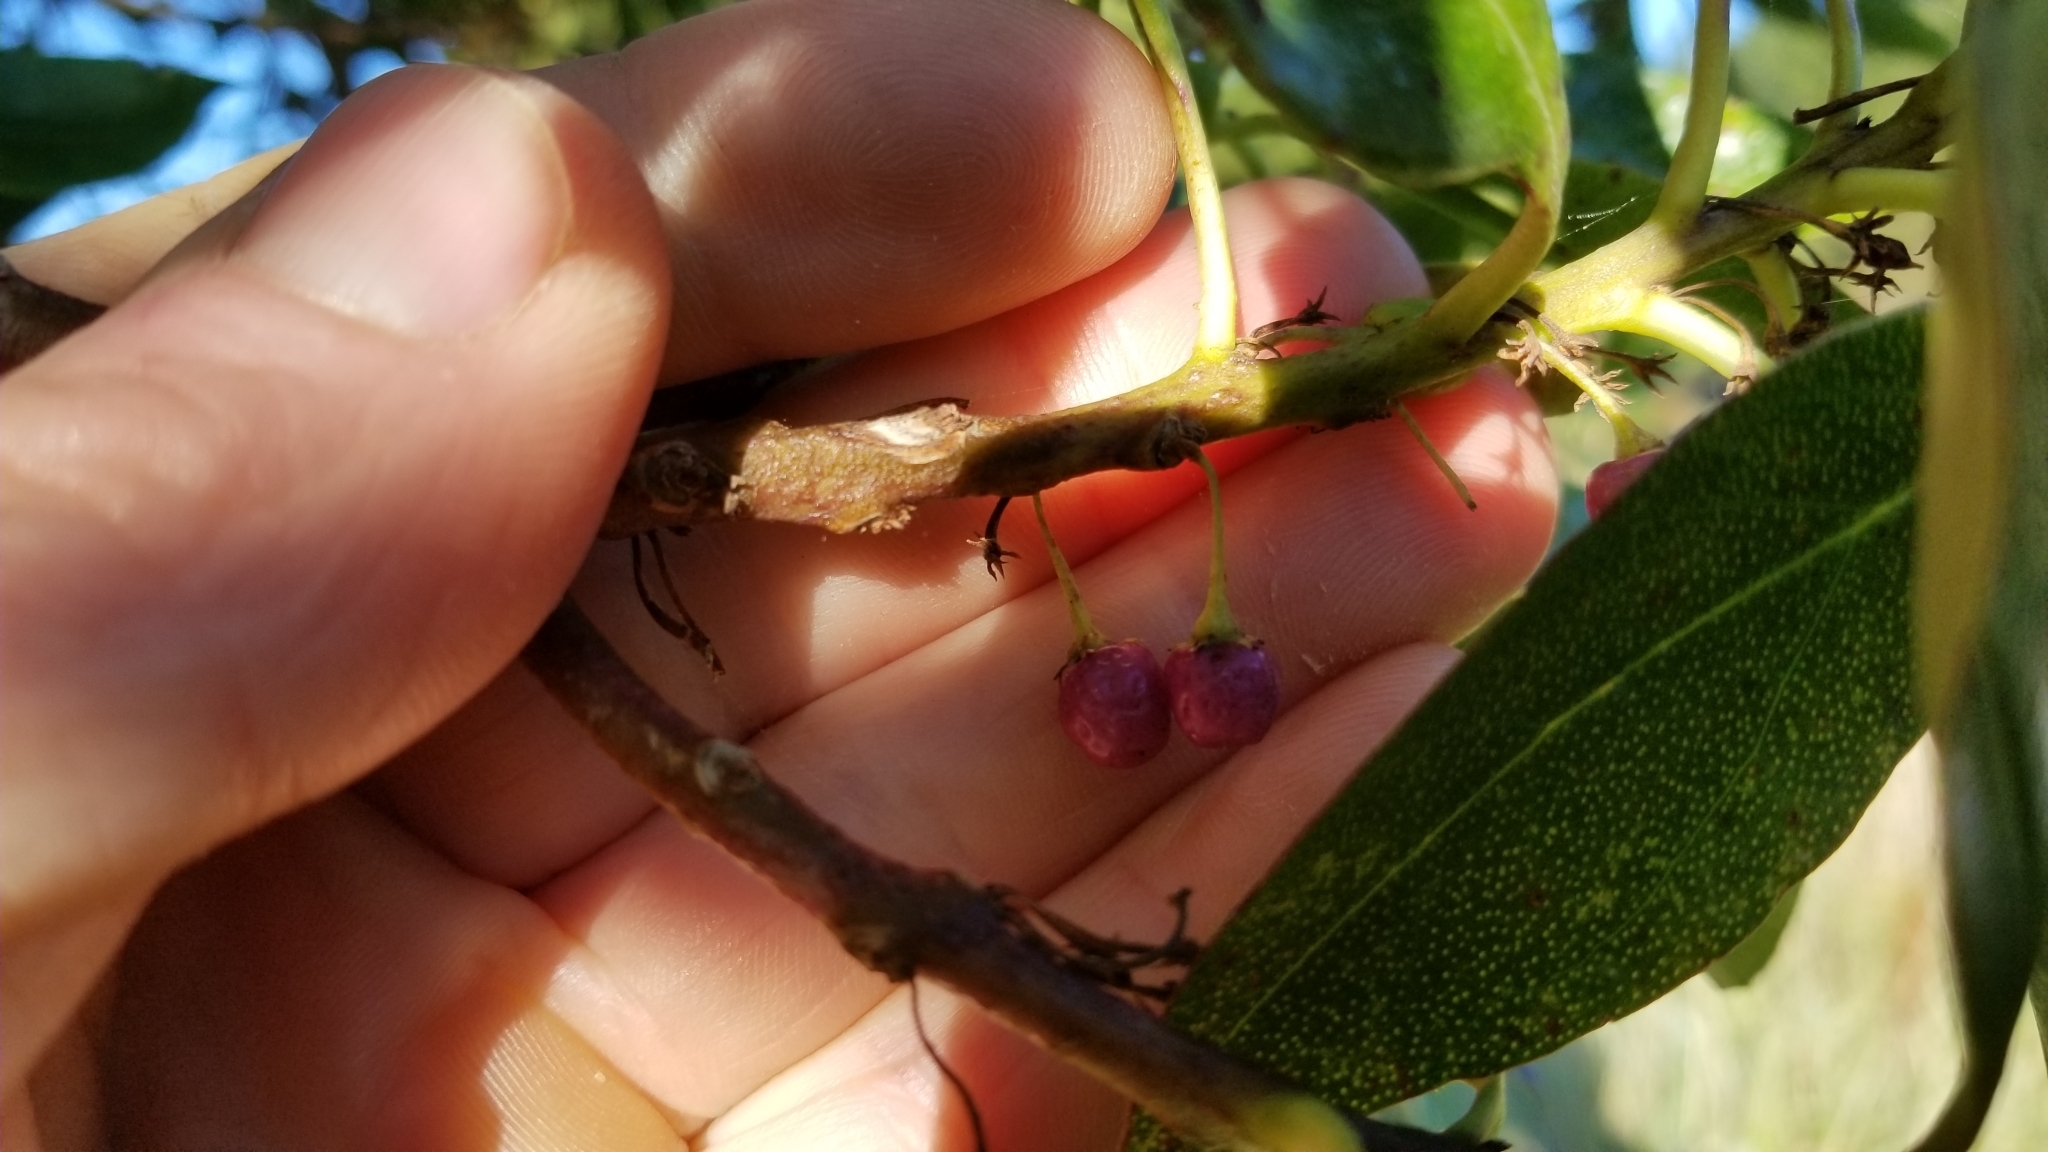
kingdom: Plantae
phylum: Tracheophyta
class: Magnoliopsida
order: Lamiales
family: Scrophulariaceae
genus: Myoporum
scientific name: Myoporum laetum
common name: Ngaio tree
